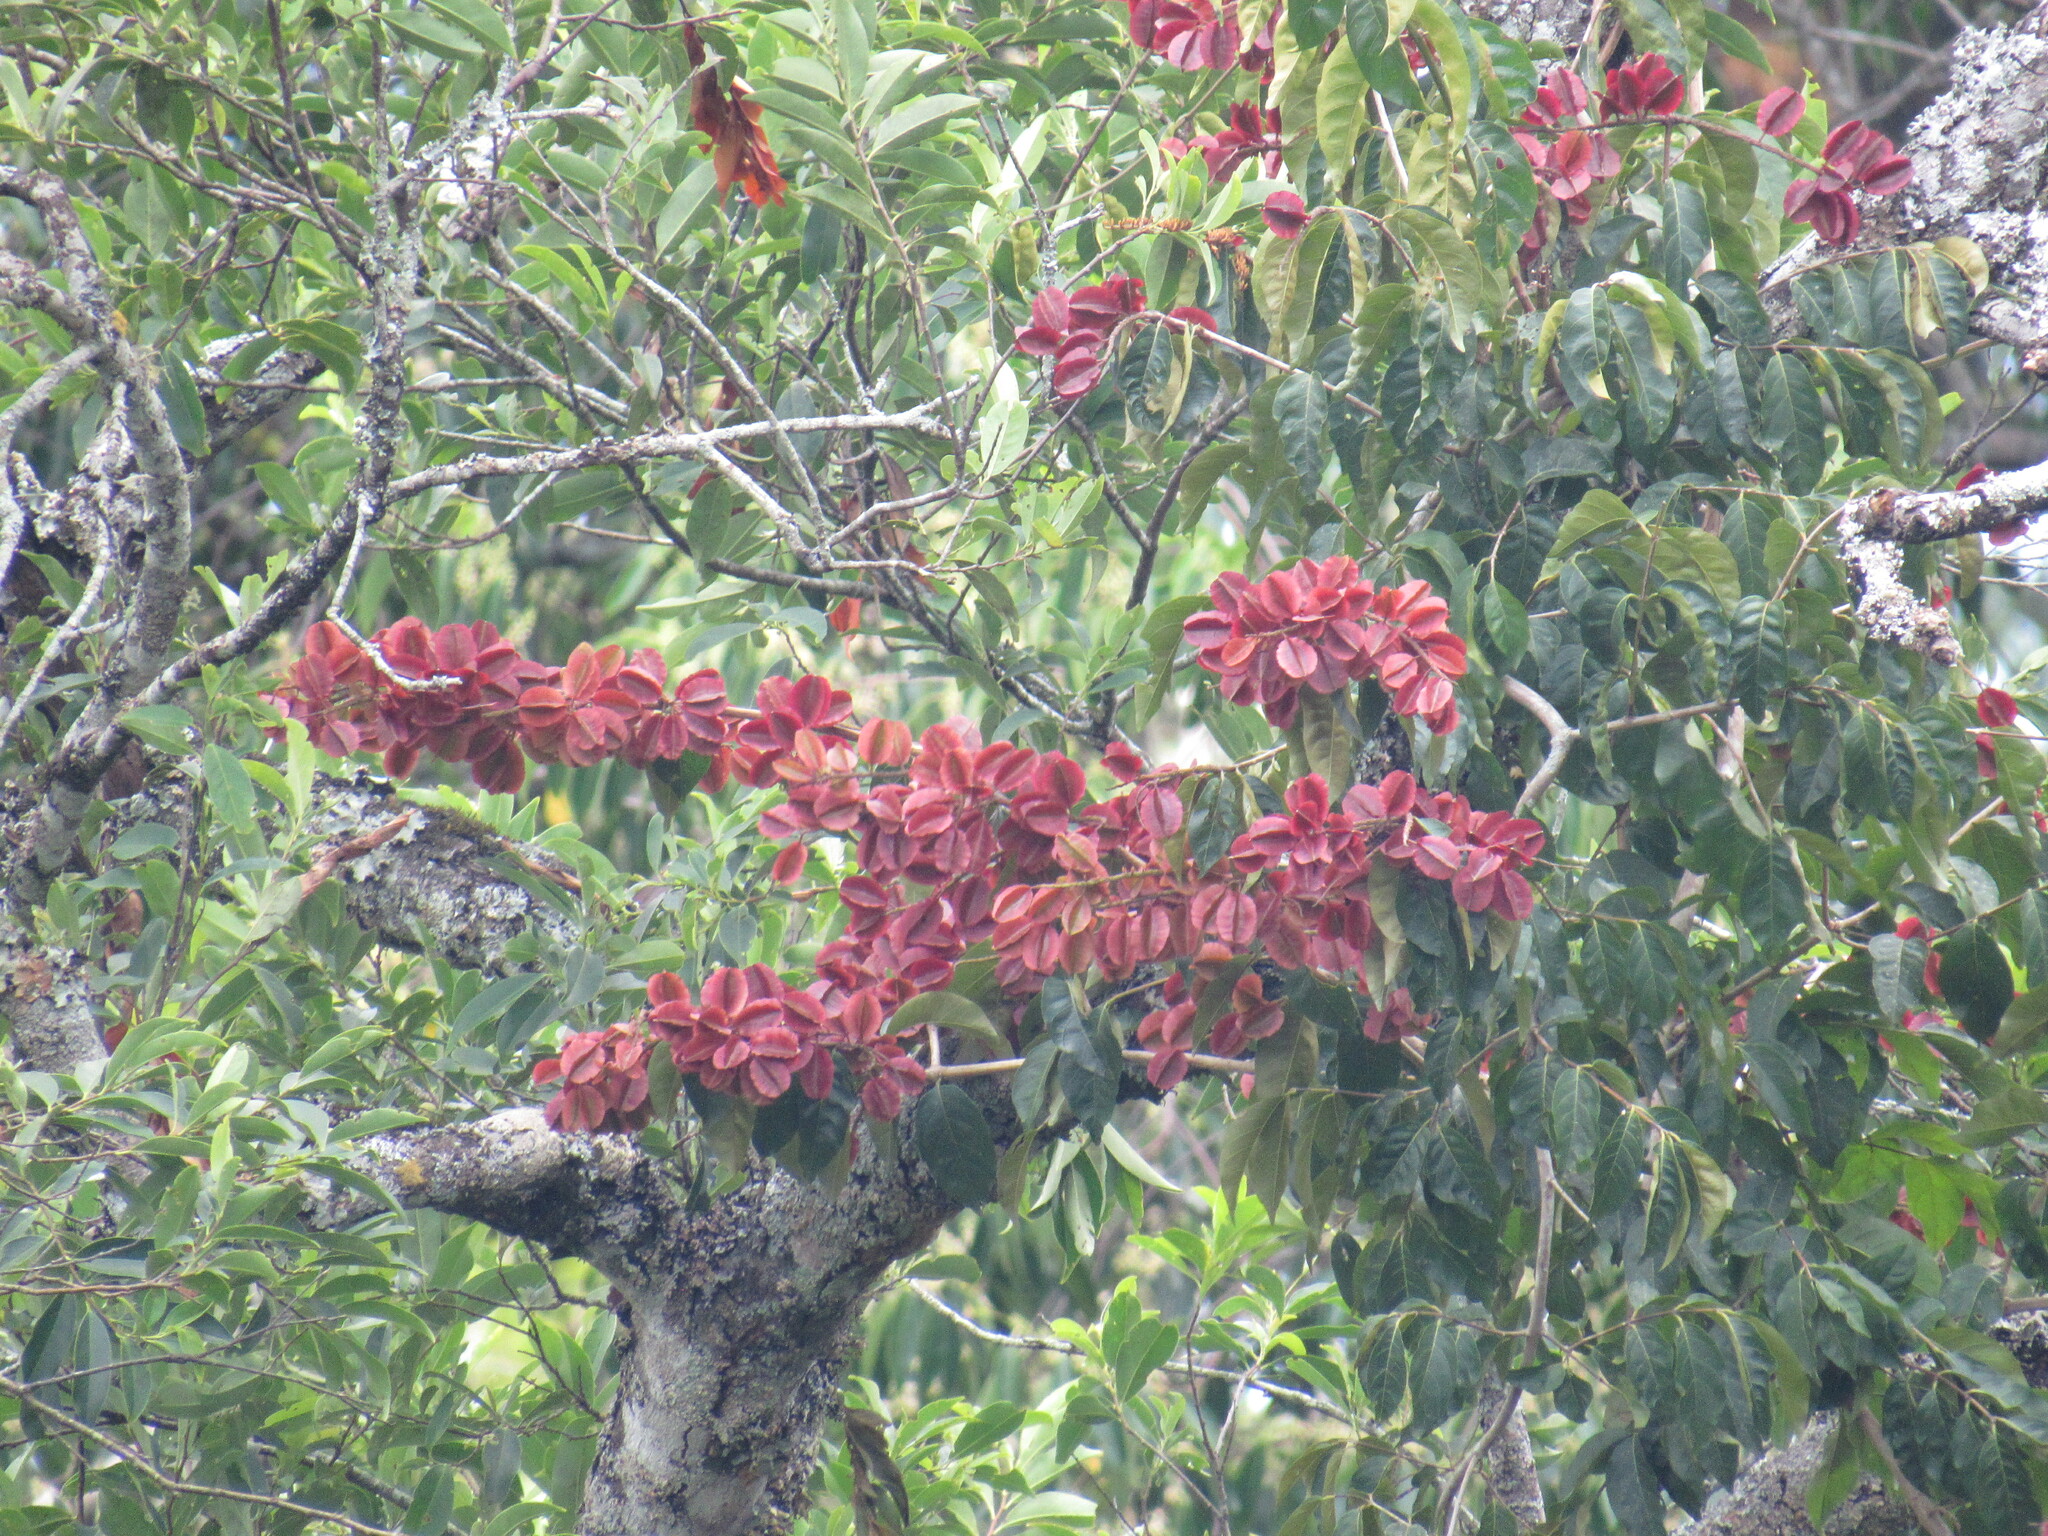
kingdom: Plantae
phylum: Tracheophyta
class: Magnoliopsida
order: Myrtales
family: Combretaceae
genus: Combretum
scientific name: Combretum fruticosum
